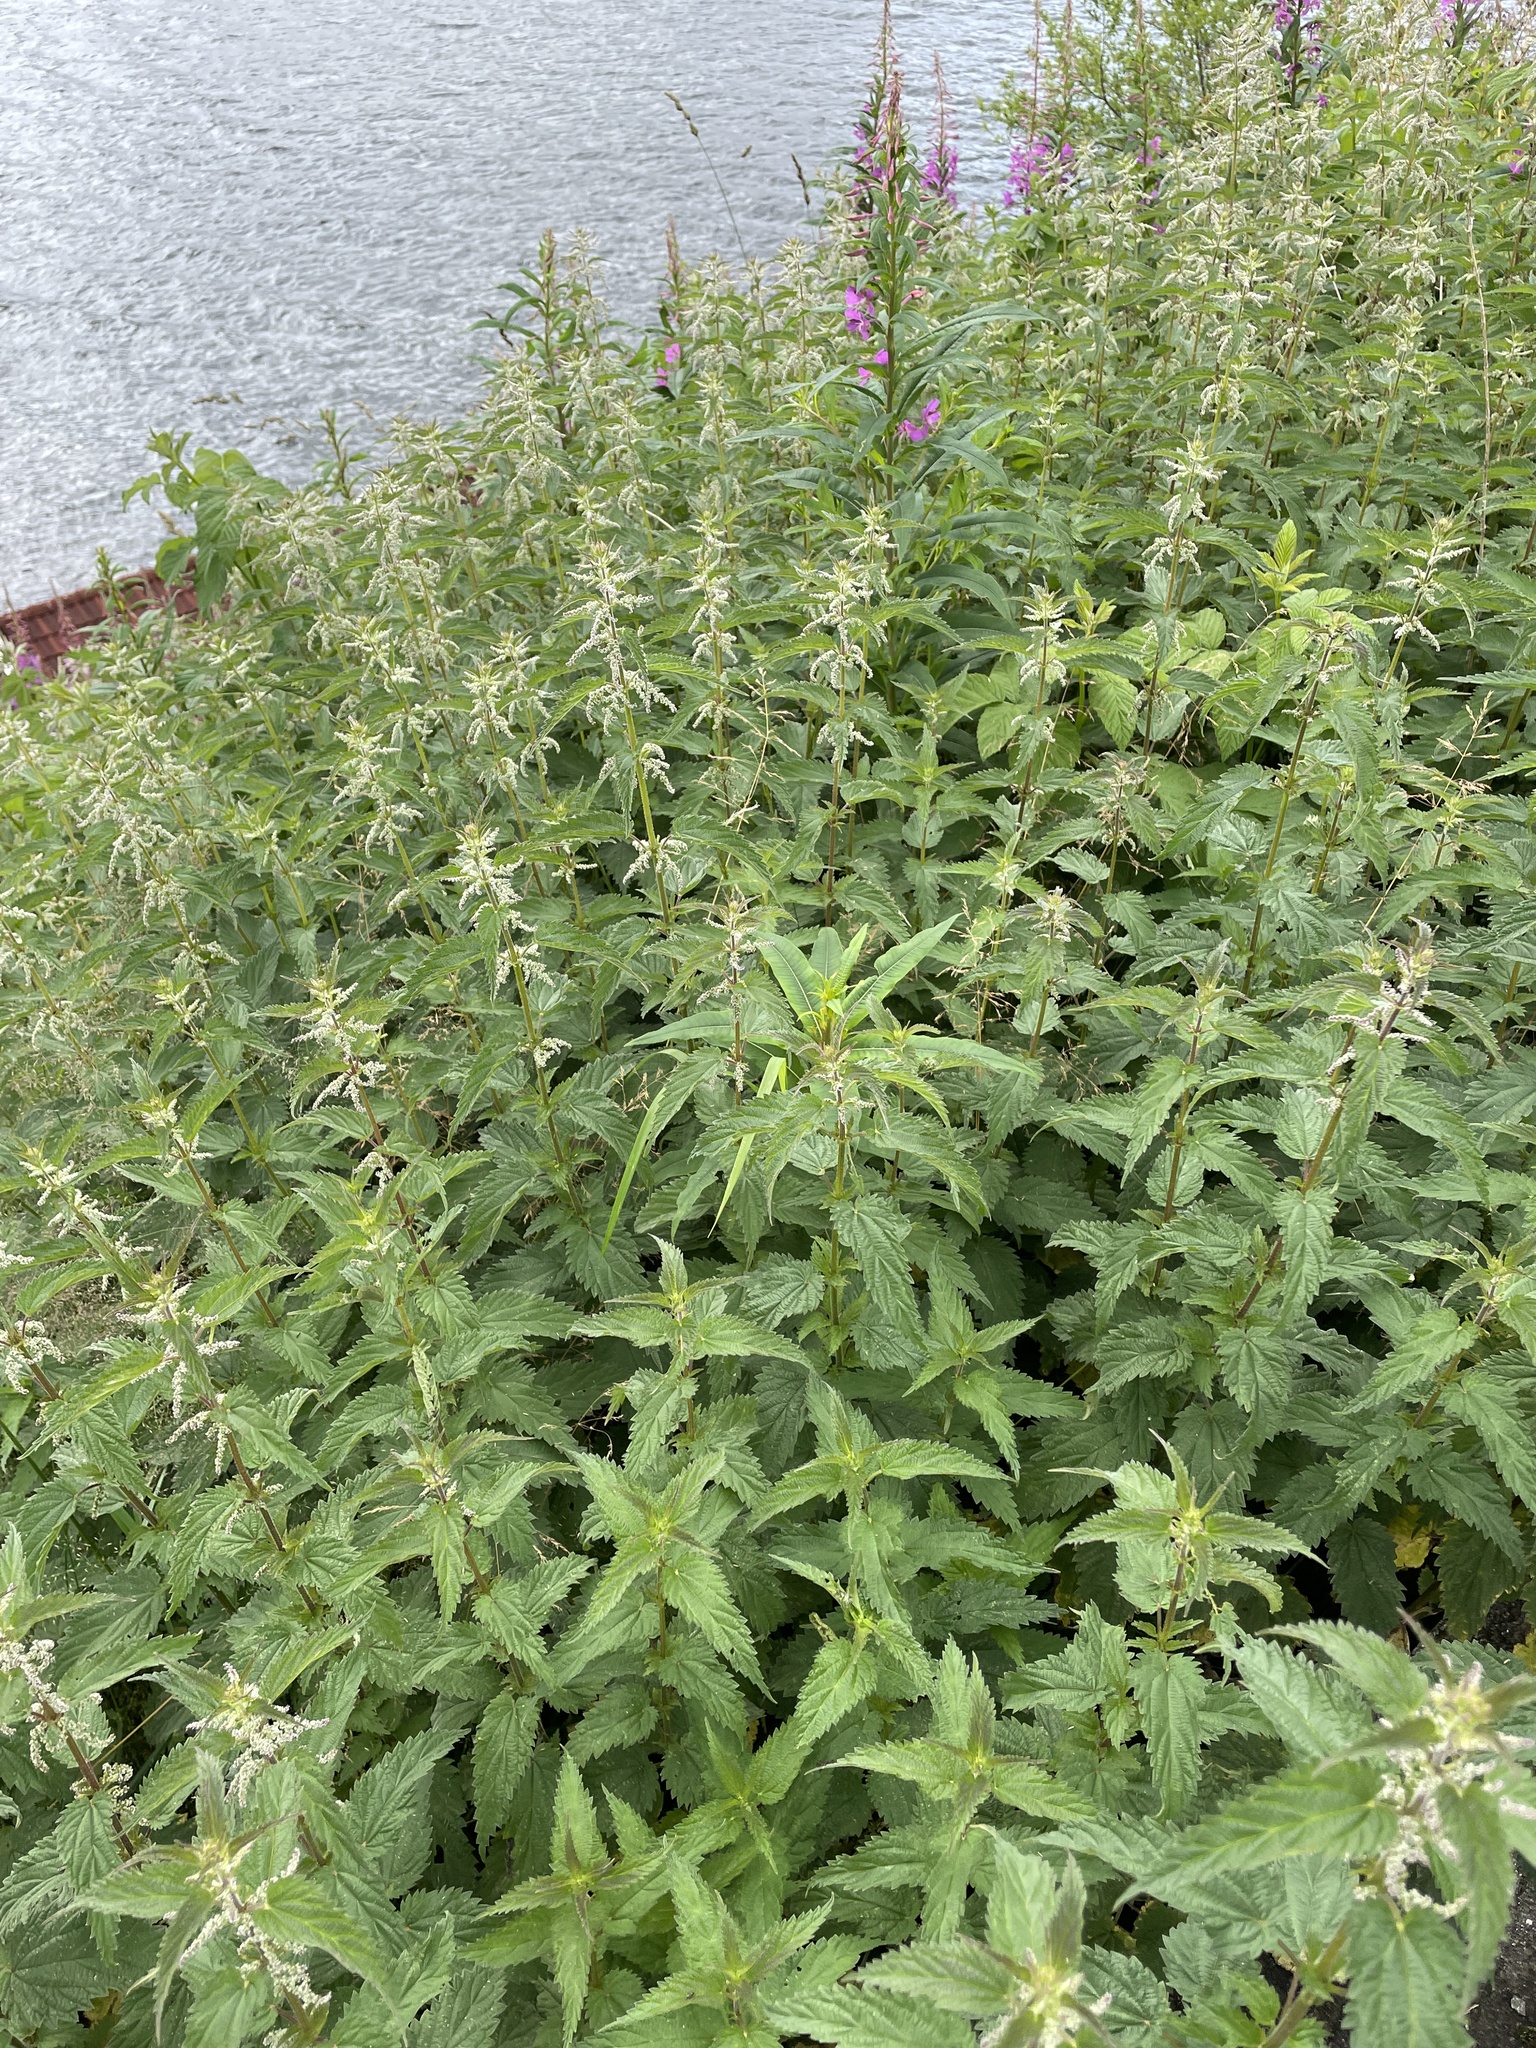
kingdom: Plantae
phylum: Tracheophyta
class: Magnoliopsida
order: Rosales
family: Urticaceae
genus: Urtica
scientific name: Urtica dioica
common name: Common nettle
